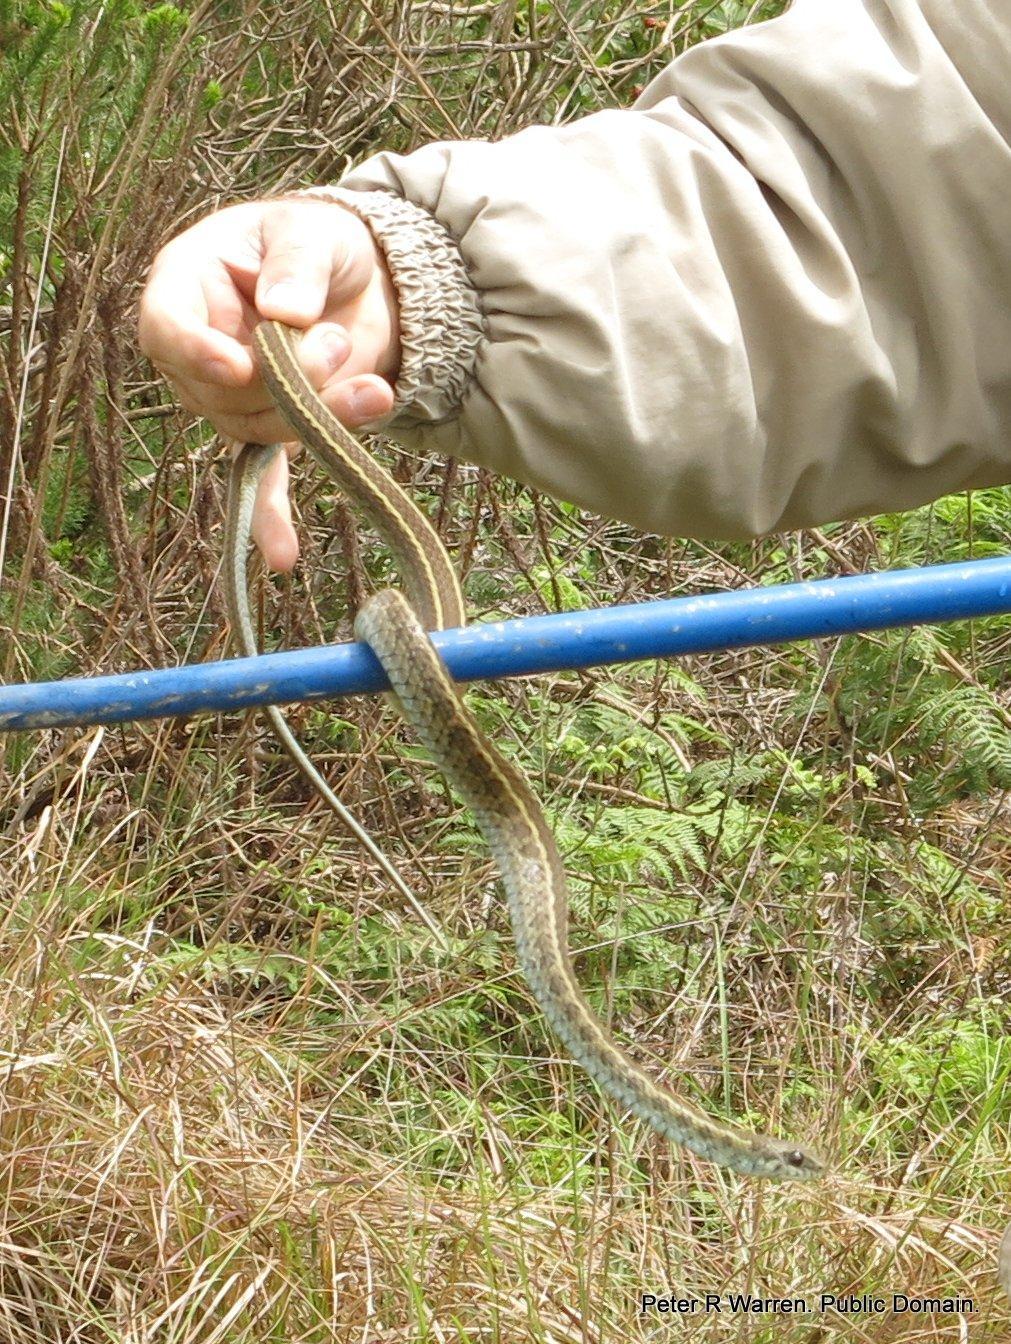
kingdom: Animalia
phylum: Chordata
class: Squamata
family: Psammophiidae
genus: Psammophylax
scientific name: Psammophylax rhombeatus
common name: Rhombic skaapsteker
